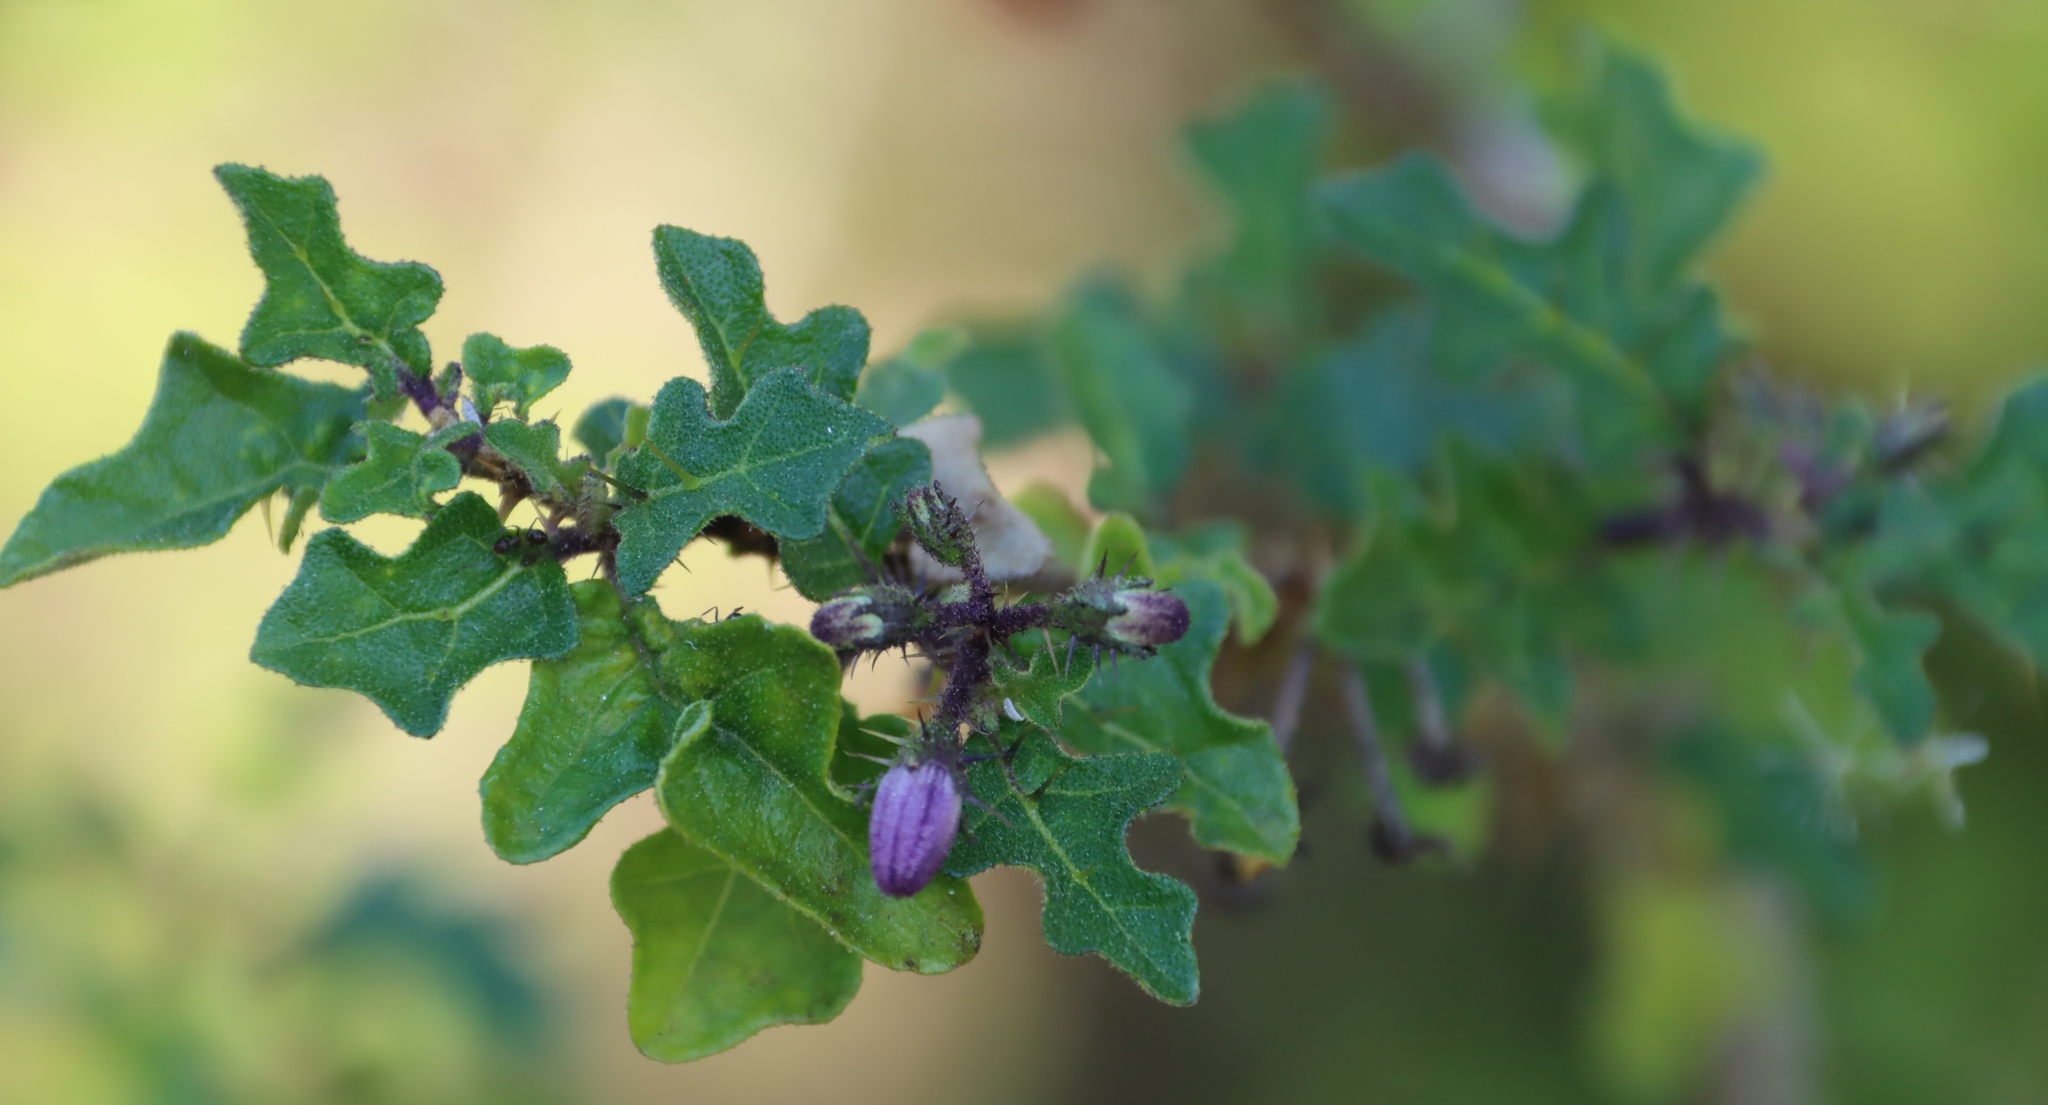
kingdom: Plantae
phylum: Tracheophyta
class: Magnoliopsida
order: Solanales
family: Solanaceae
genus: Solanum
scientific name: Solanum rubetorum
